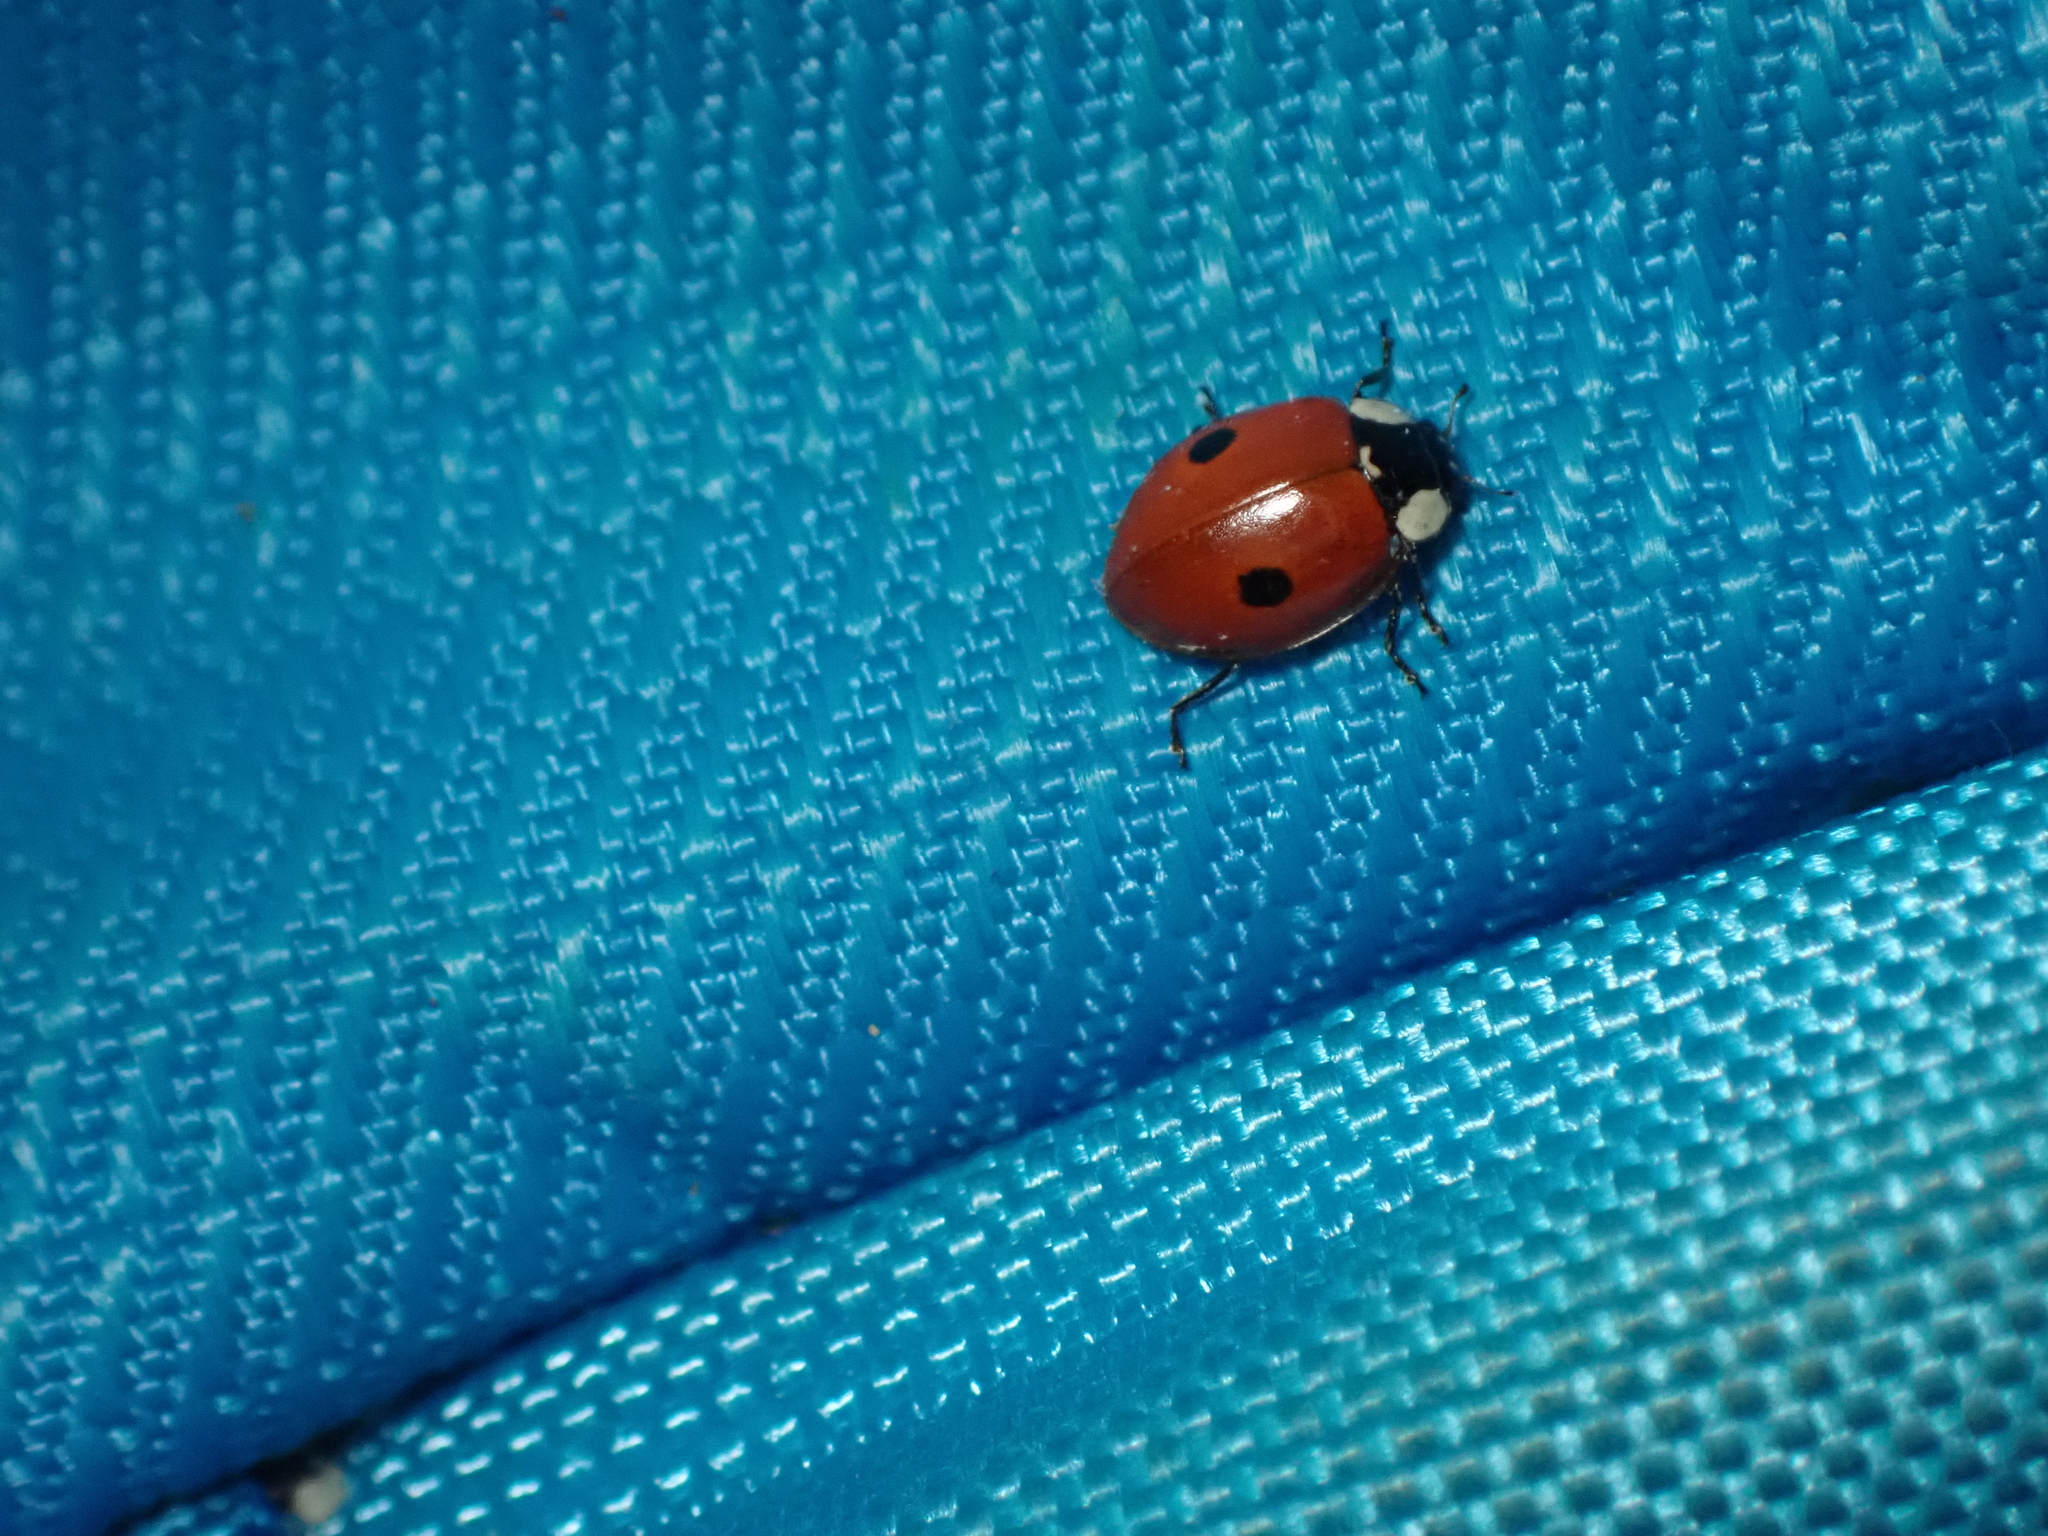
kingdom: Animalia
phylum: Arthropoda
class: Insecta
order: Coleoptera
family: Coccinellidae
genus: Adalia
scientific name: Adalia bipunctata
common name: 2-spot ladybird
